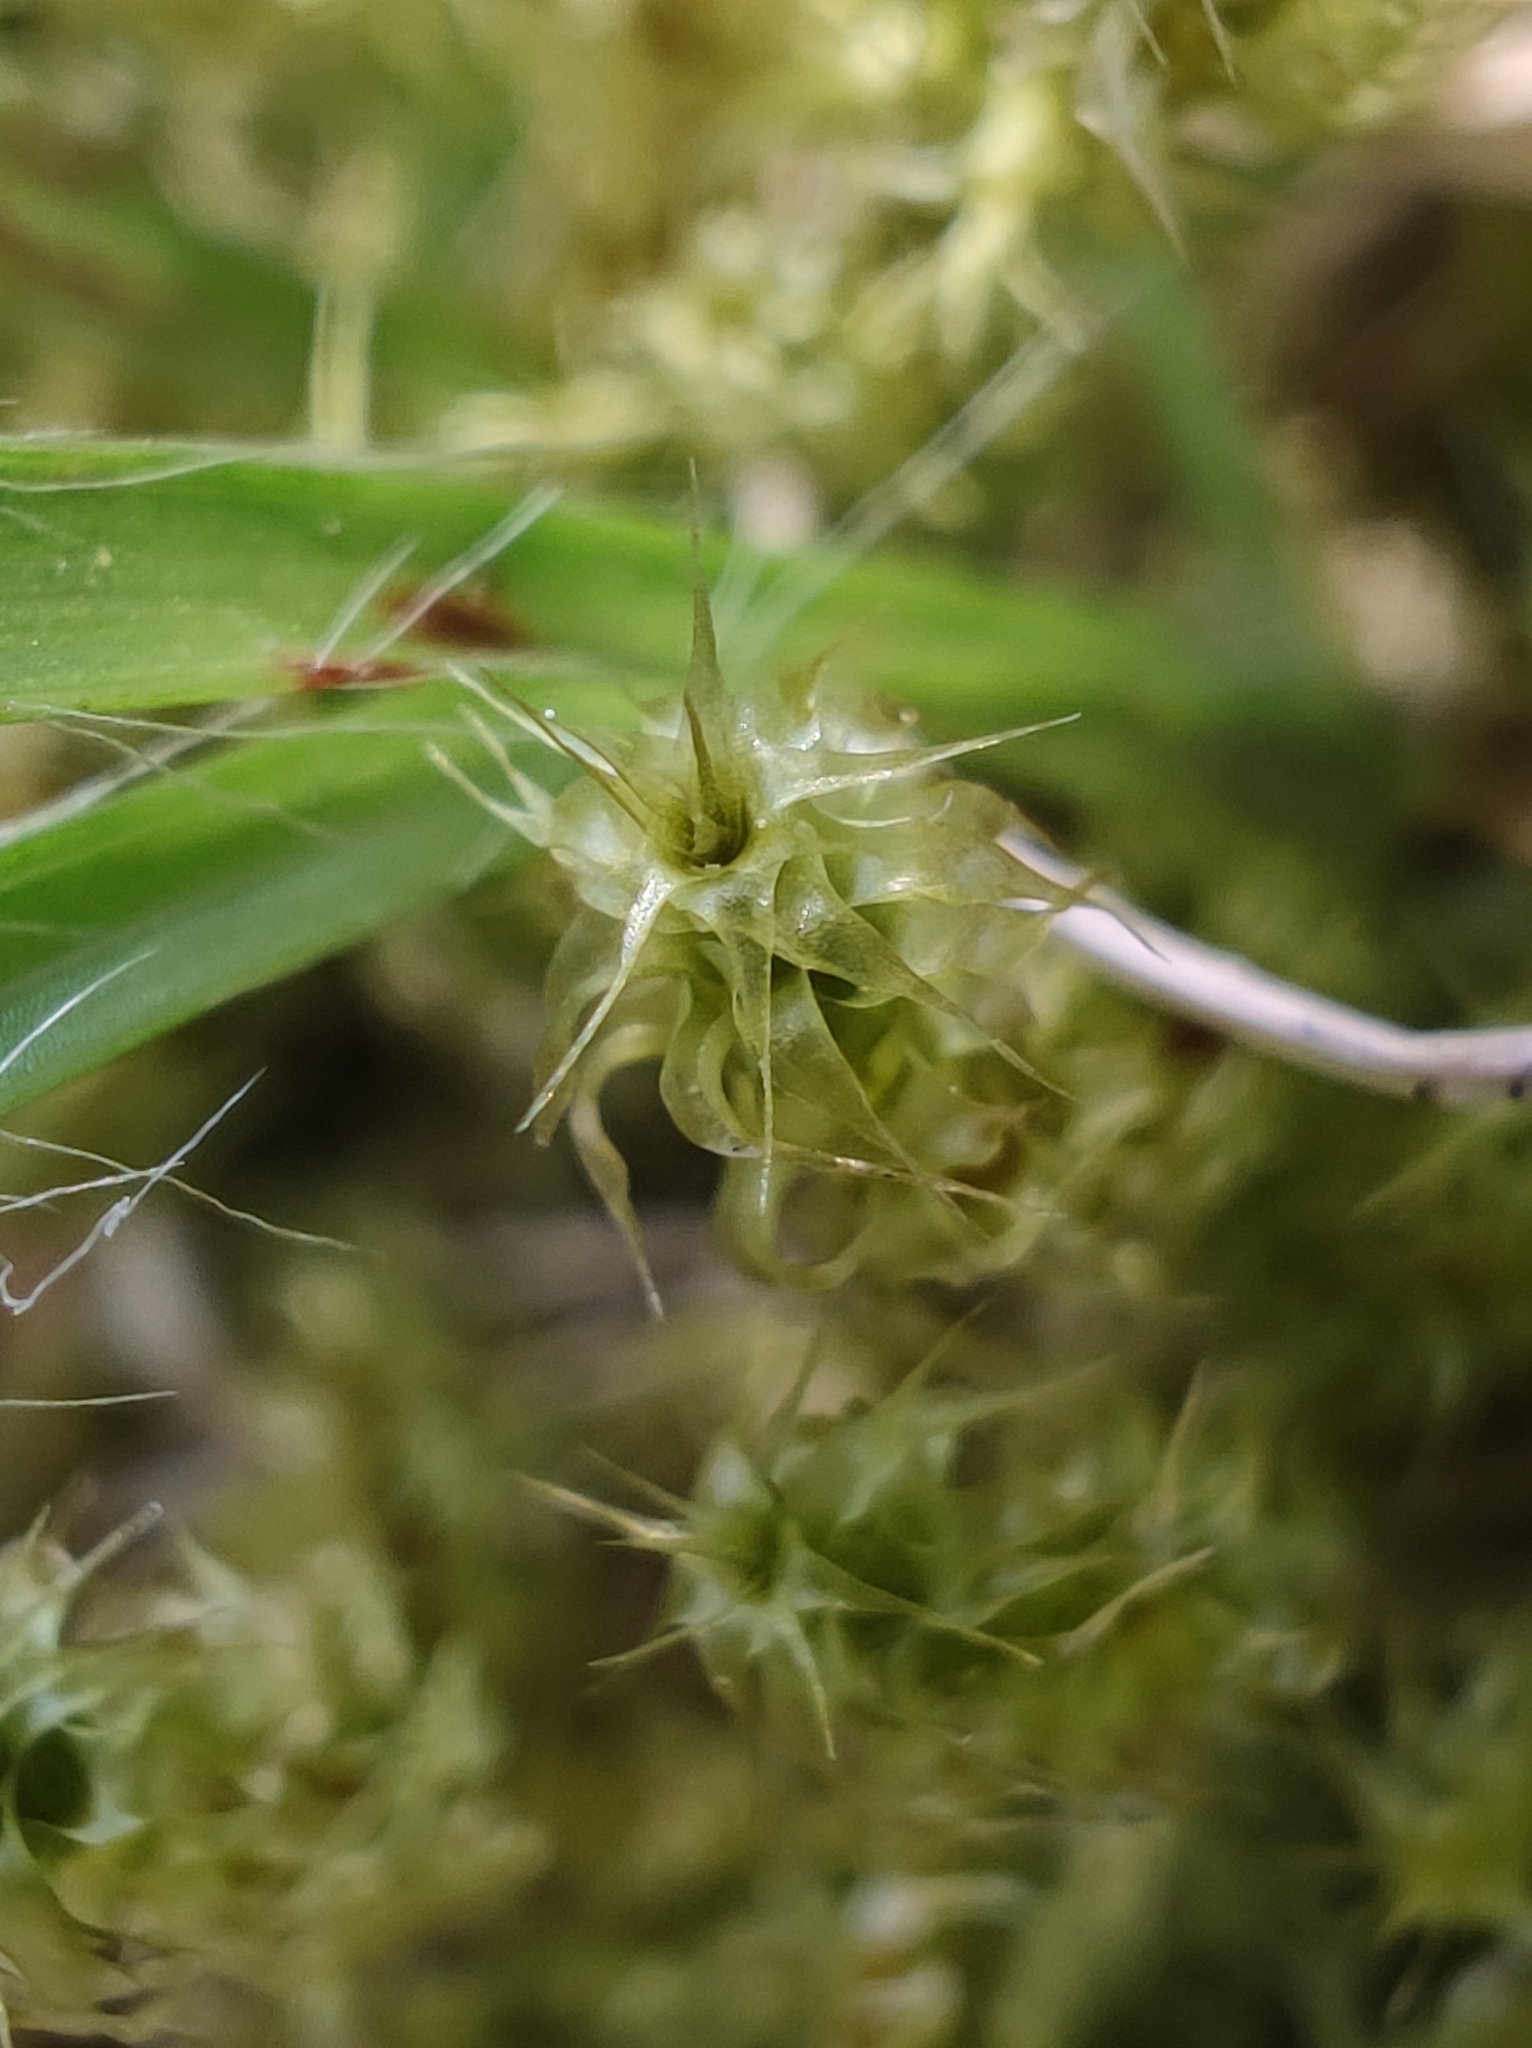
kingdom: Plantae
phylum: Bryophyta
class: Bryopsida
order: Hypnales
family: Hylocomiaceae
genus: Rhytidiadelphus
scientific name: Rhytidiadelphus squarrosus
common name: Springy turf-moss
